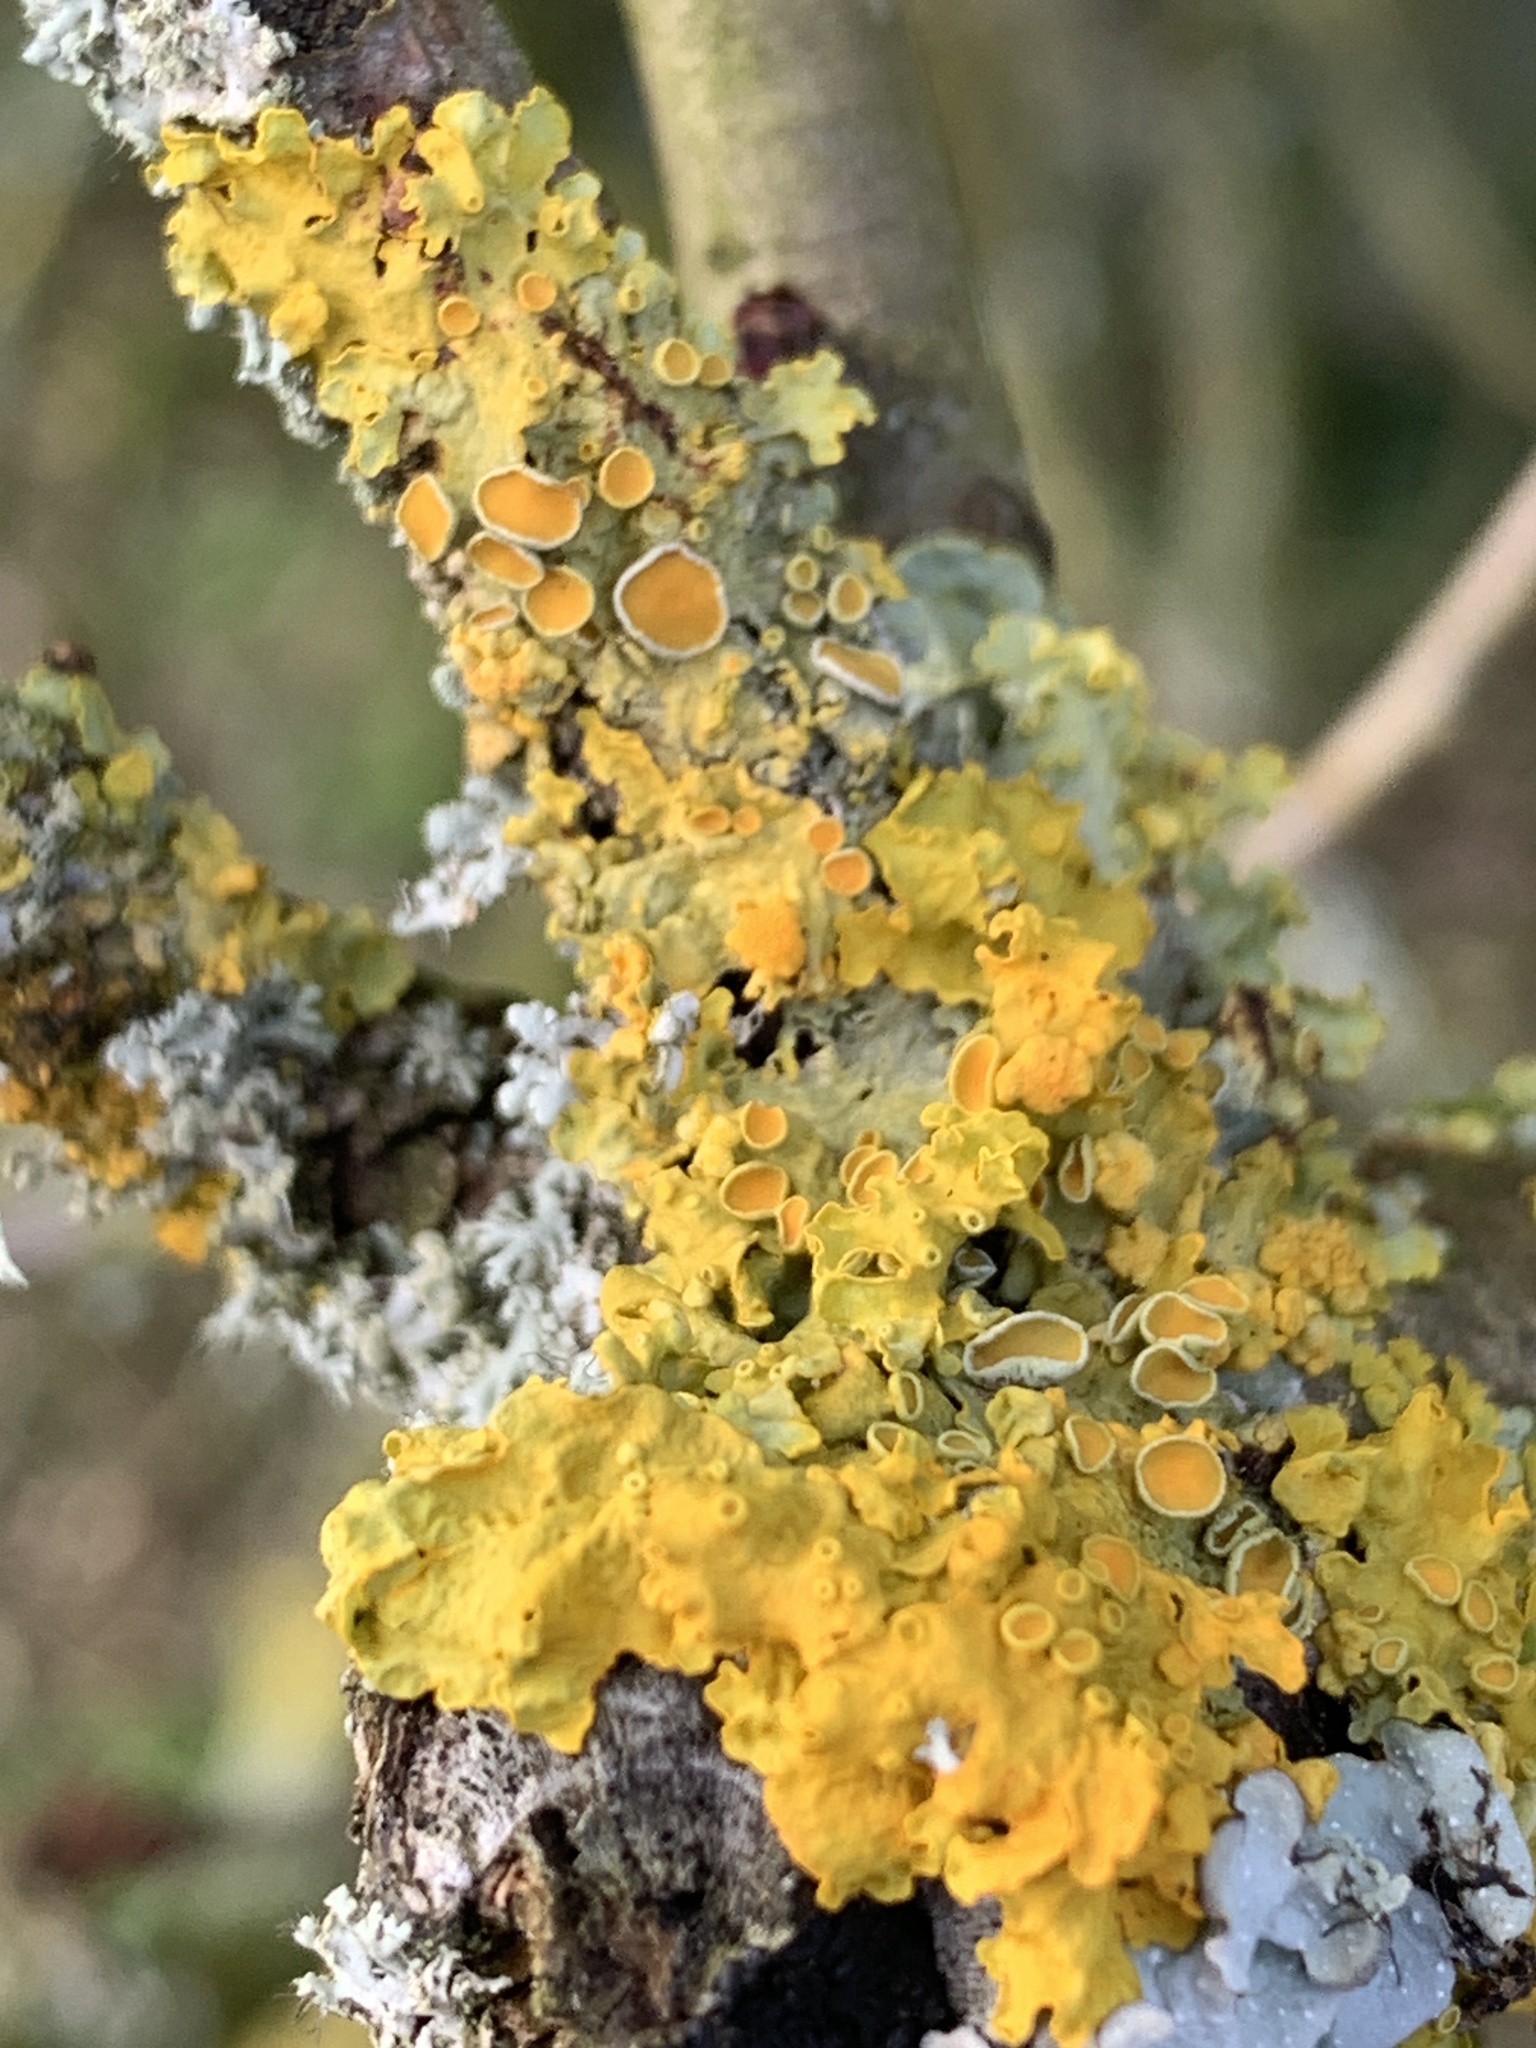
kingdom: Fungi
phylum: Ascomycota
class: Lecanoromycetes
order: Teloschistales
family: Teloschistaceae
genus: Xanthoria
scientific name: Xanthoria parietina
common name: Common orange lichen
